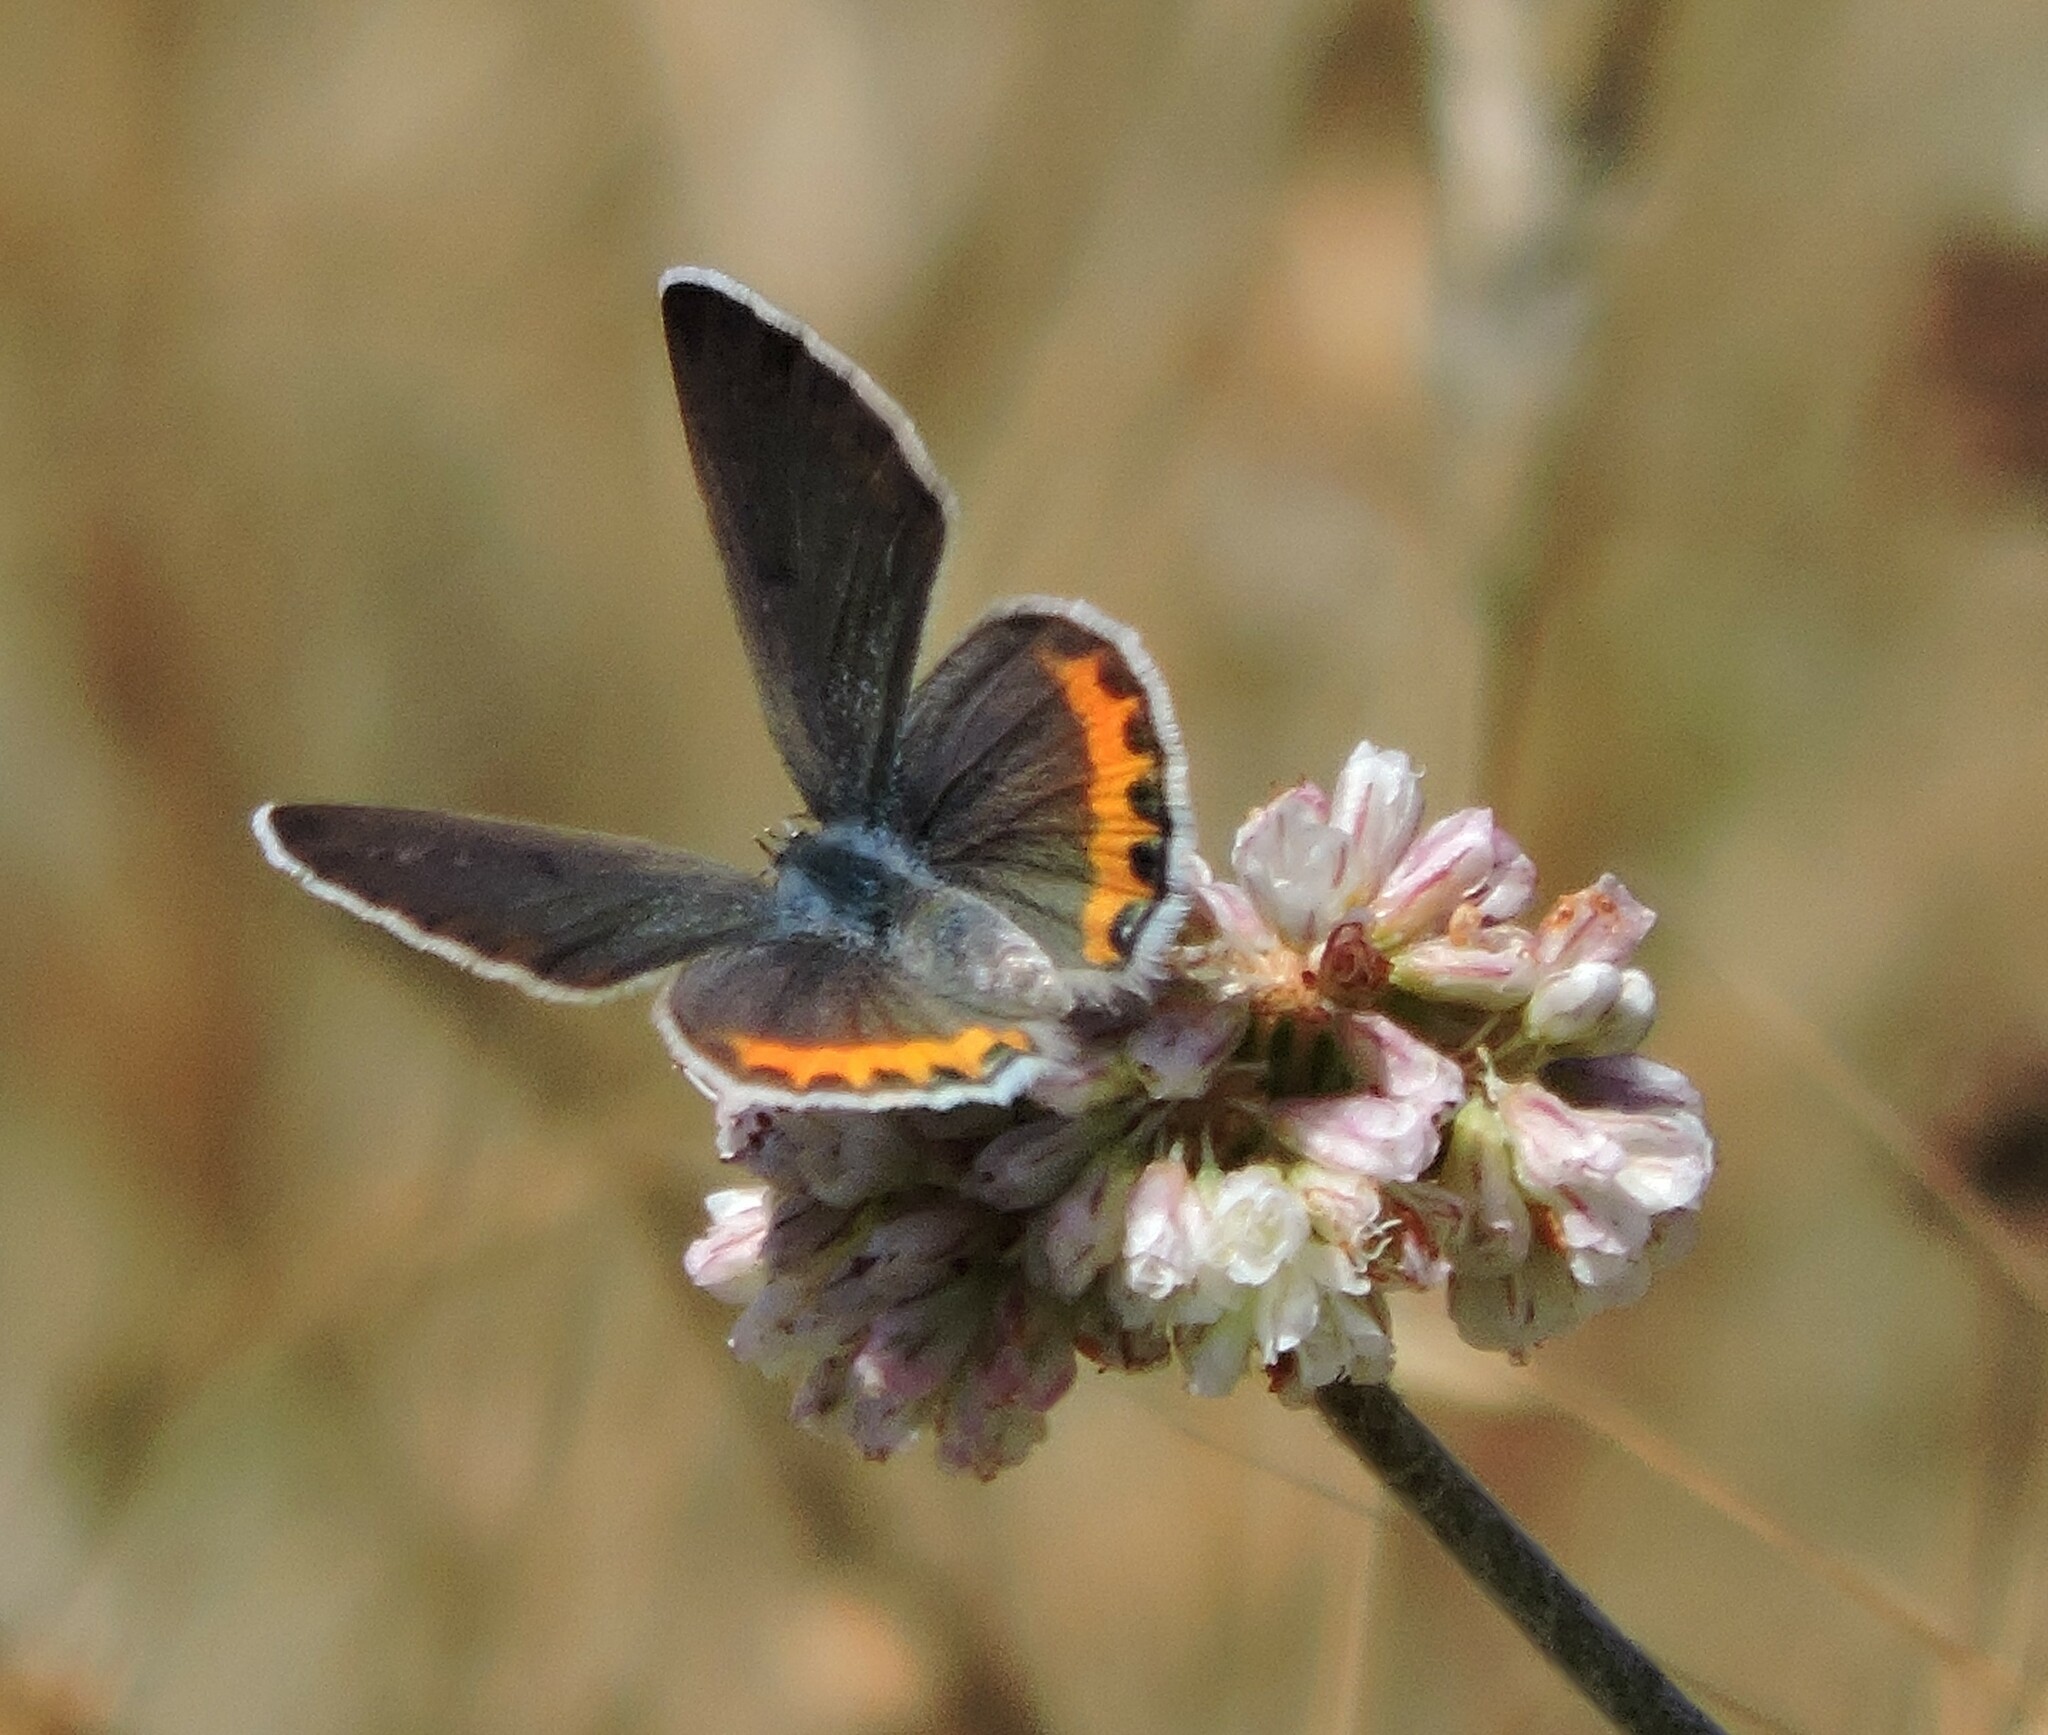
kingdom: Animalia
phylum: Arthropoda
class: Insecta
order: Lepidoptera
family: Lycaenidae
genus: Icaricia
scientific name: Icaricia acmon
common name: Acmon blue
